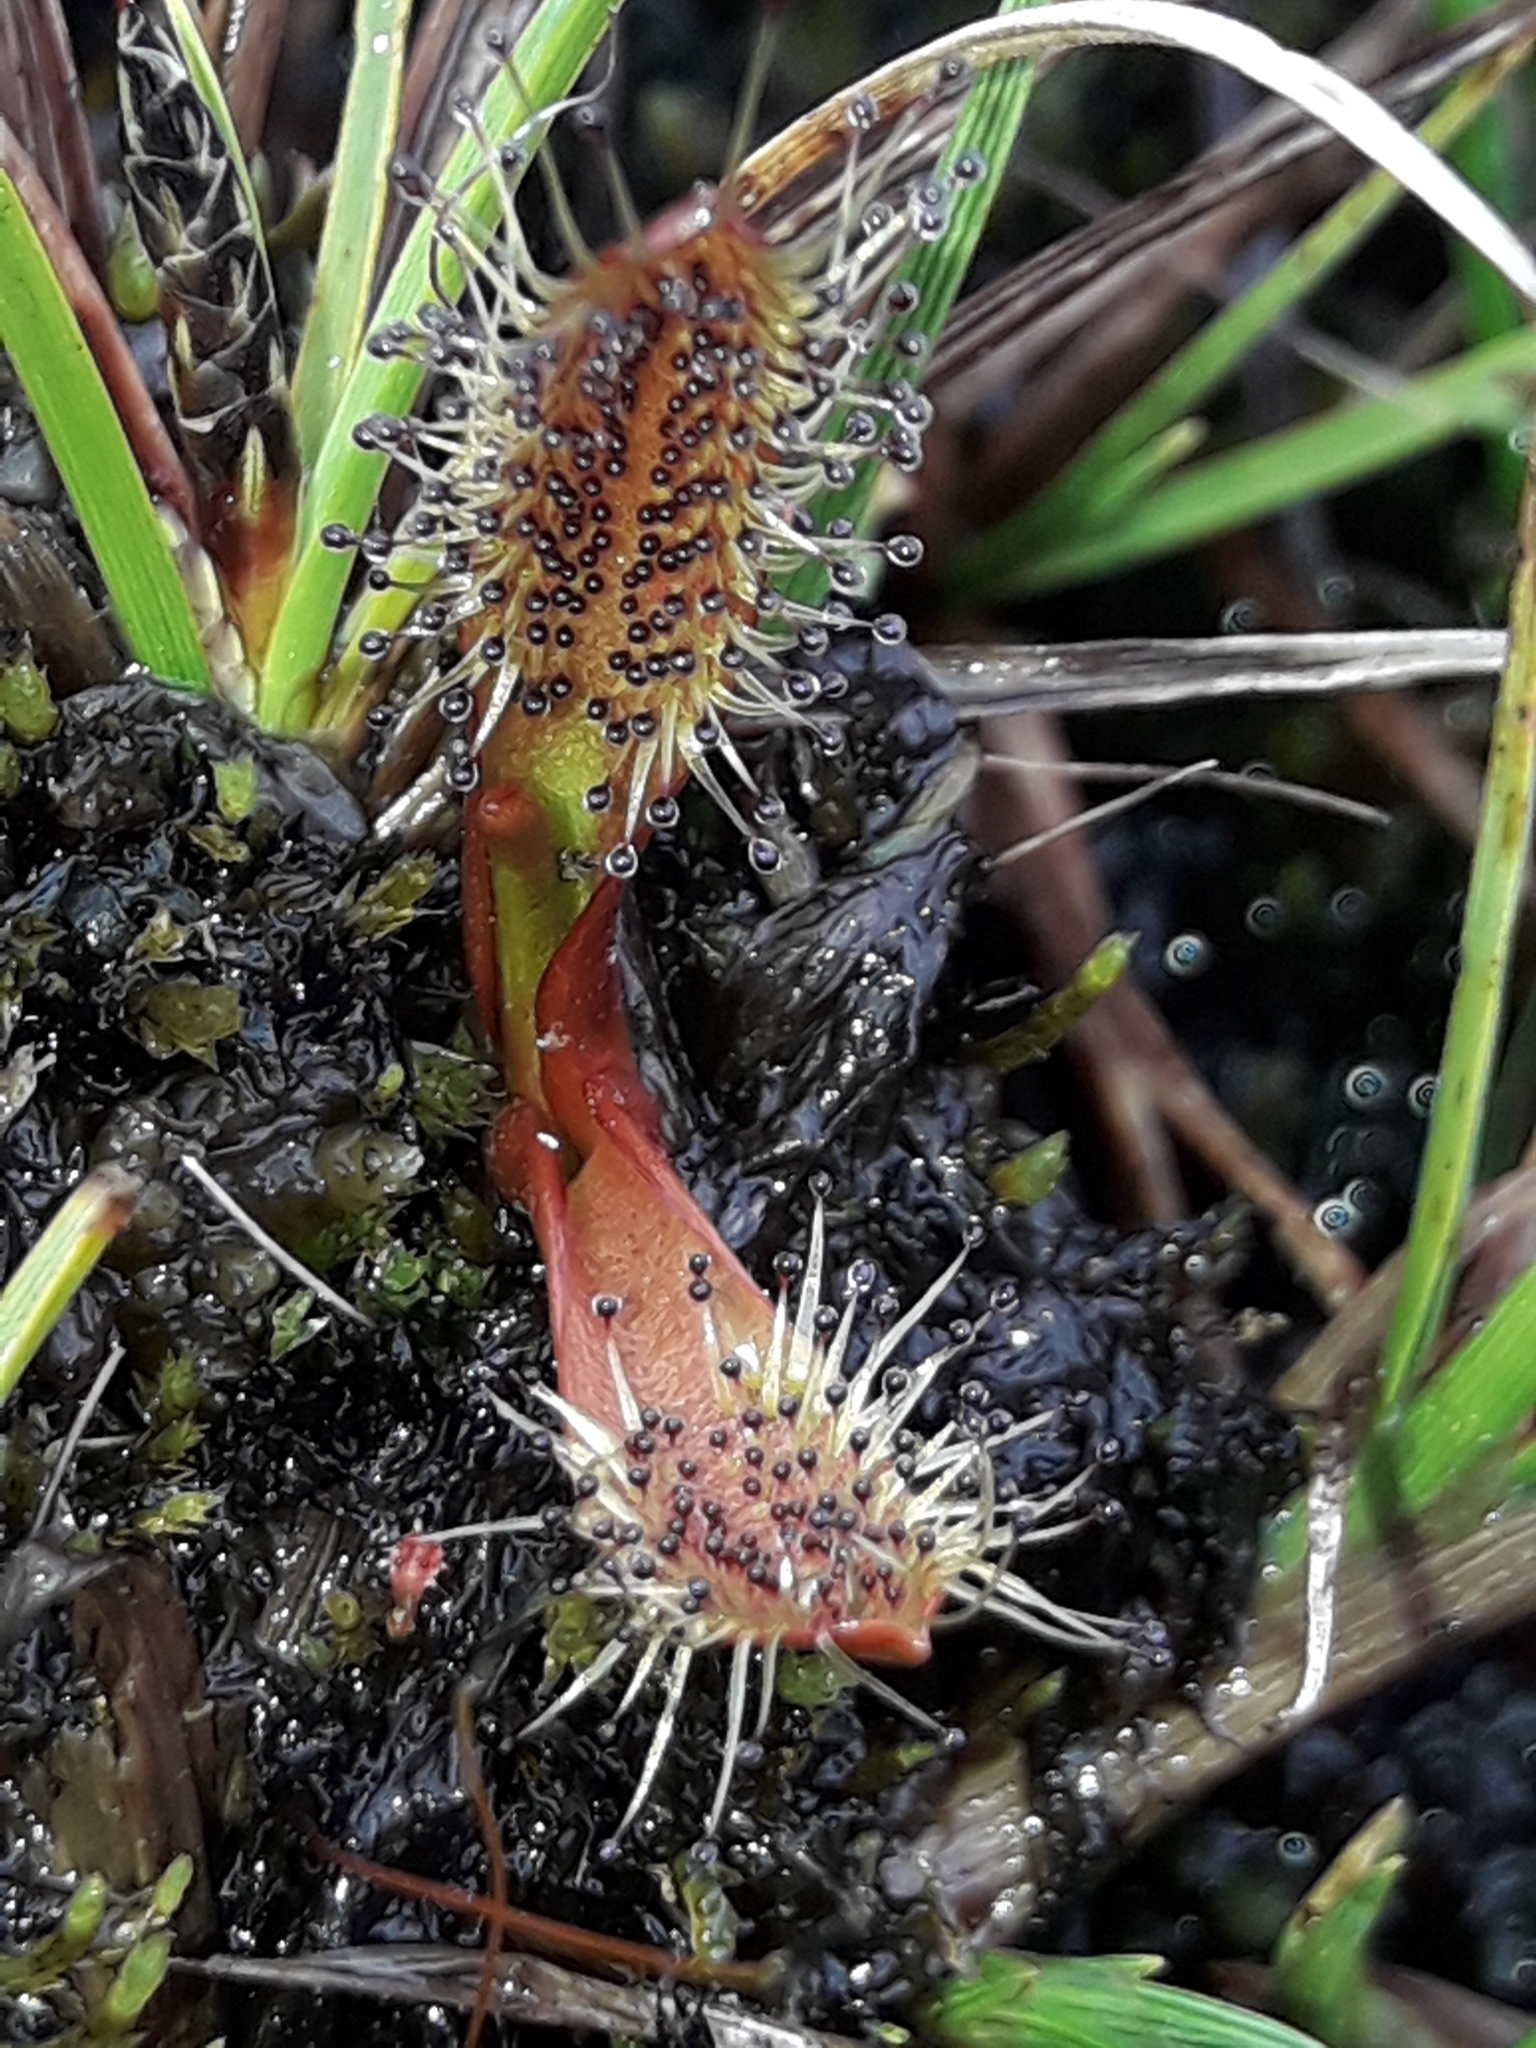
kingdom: Plantae
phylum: Tracheophyta
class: Magnoliopsida
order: Caryophyllales
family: Droseraceae
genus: Drosera
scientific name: Drosera arcturi
